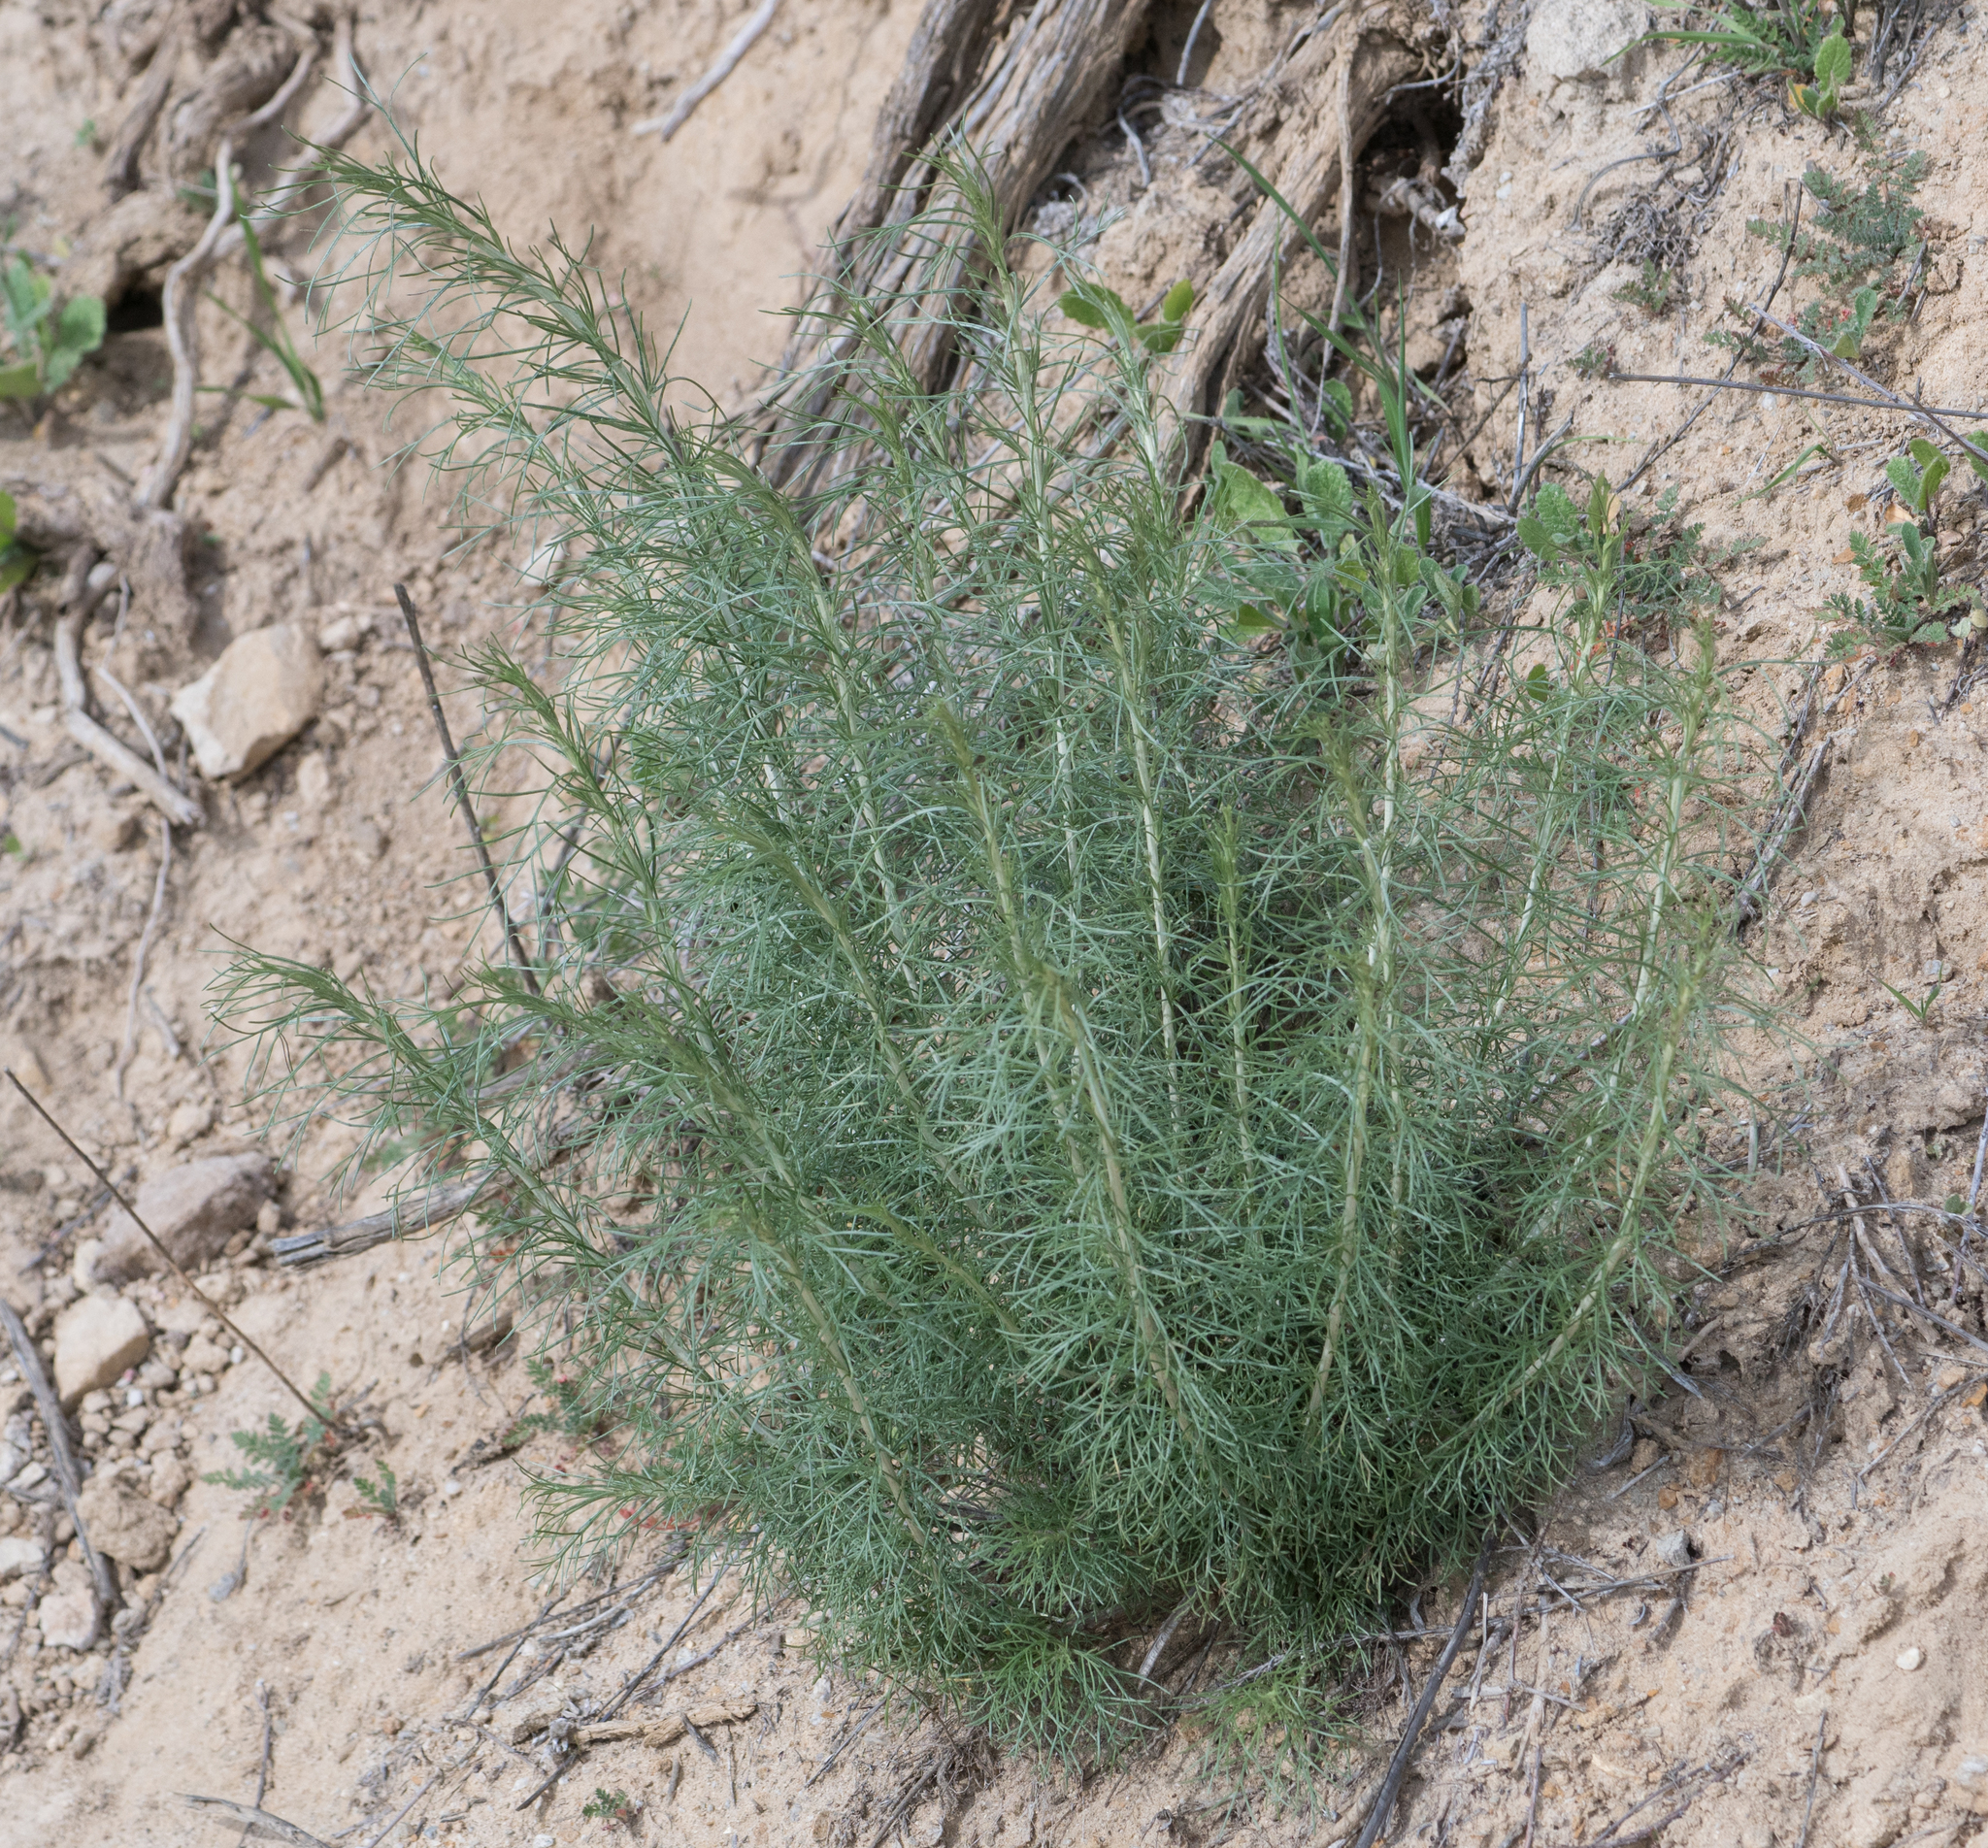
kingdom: Plantae
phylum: Tracheophyta
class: Magnoliopsida
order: Asterales
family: Asteraceae
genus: Artemisia
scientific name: Artemisia californica
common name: California sagebrush
